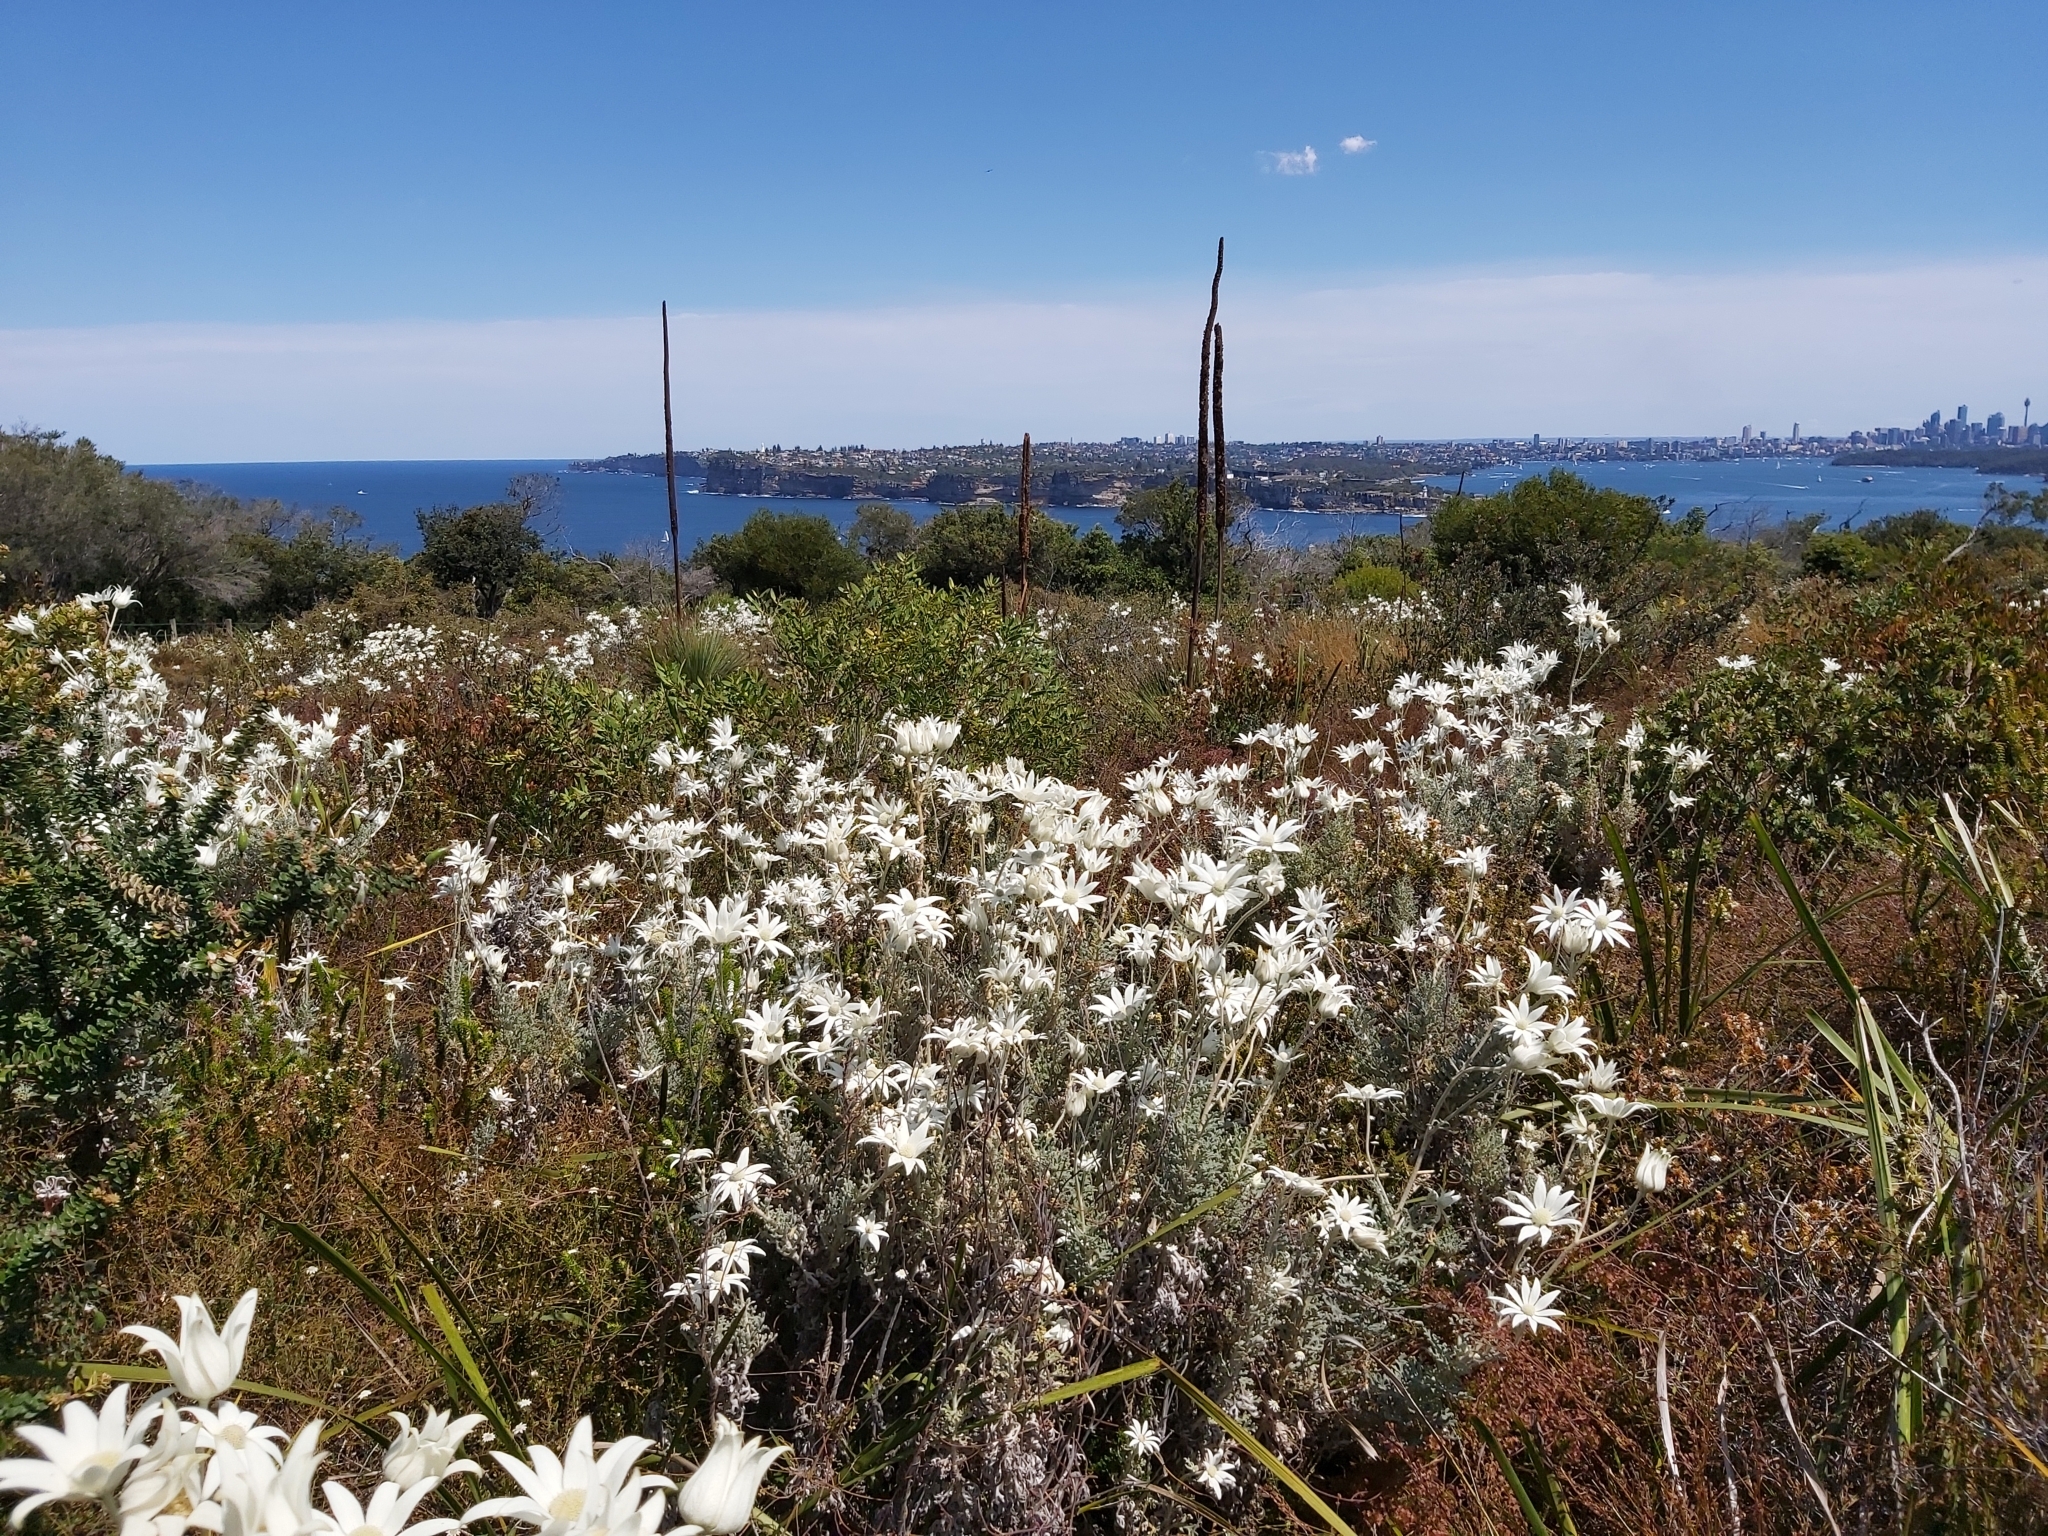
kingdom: Plantae
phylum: Tracheophyta
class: Magnoliopsida
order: Apiales
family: Apiaceae
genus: Actinotus
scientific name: Actinotus helianthi
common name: Flannel-flower
